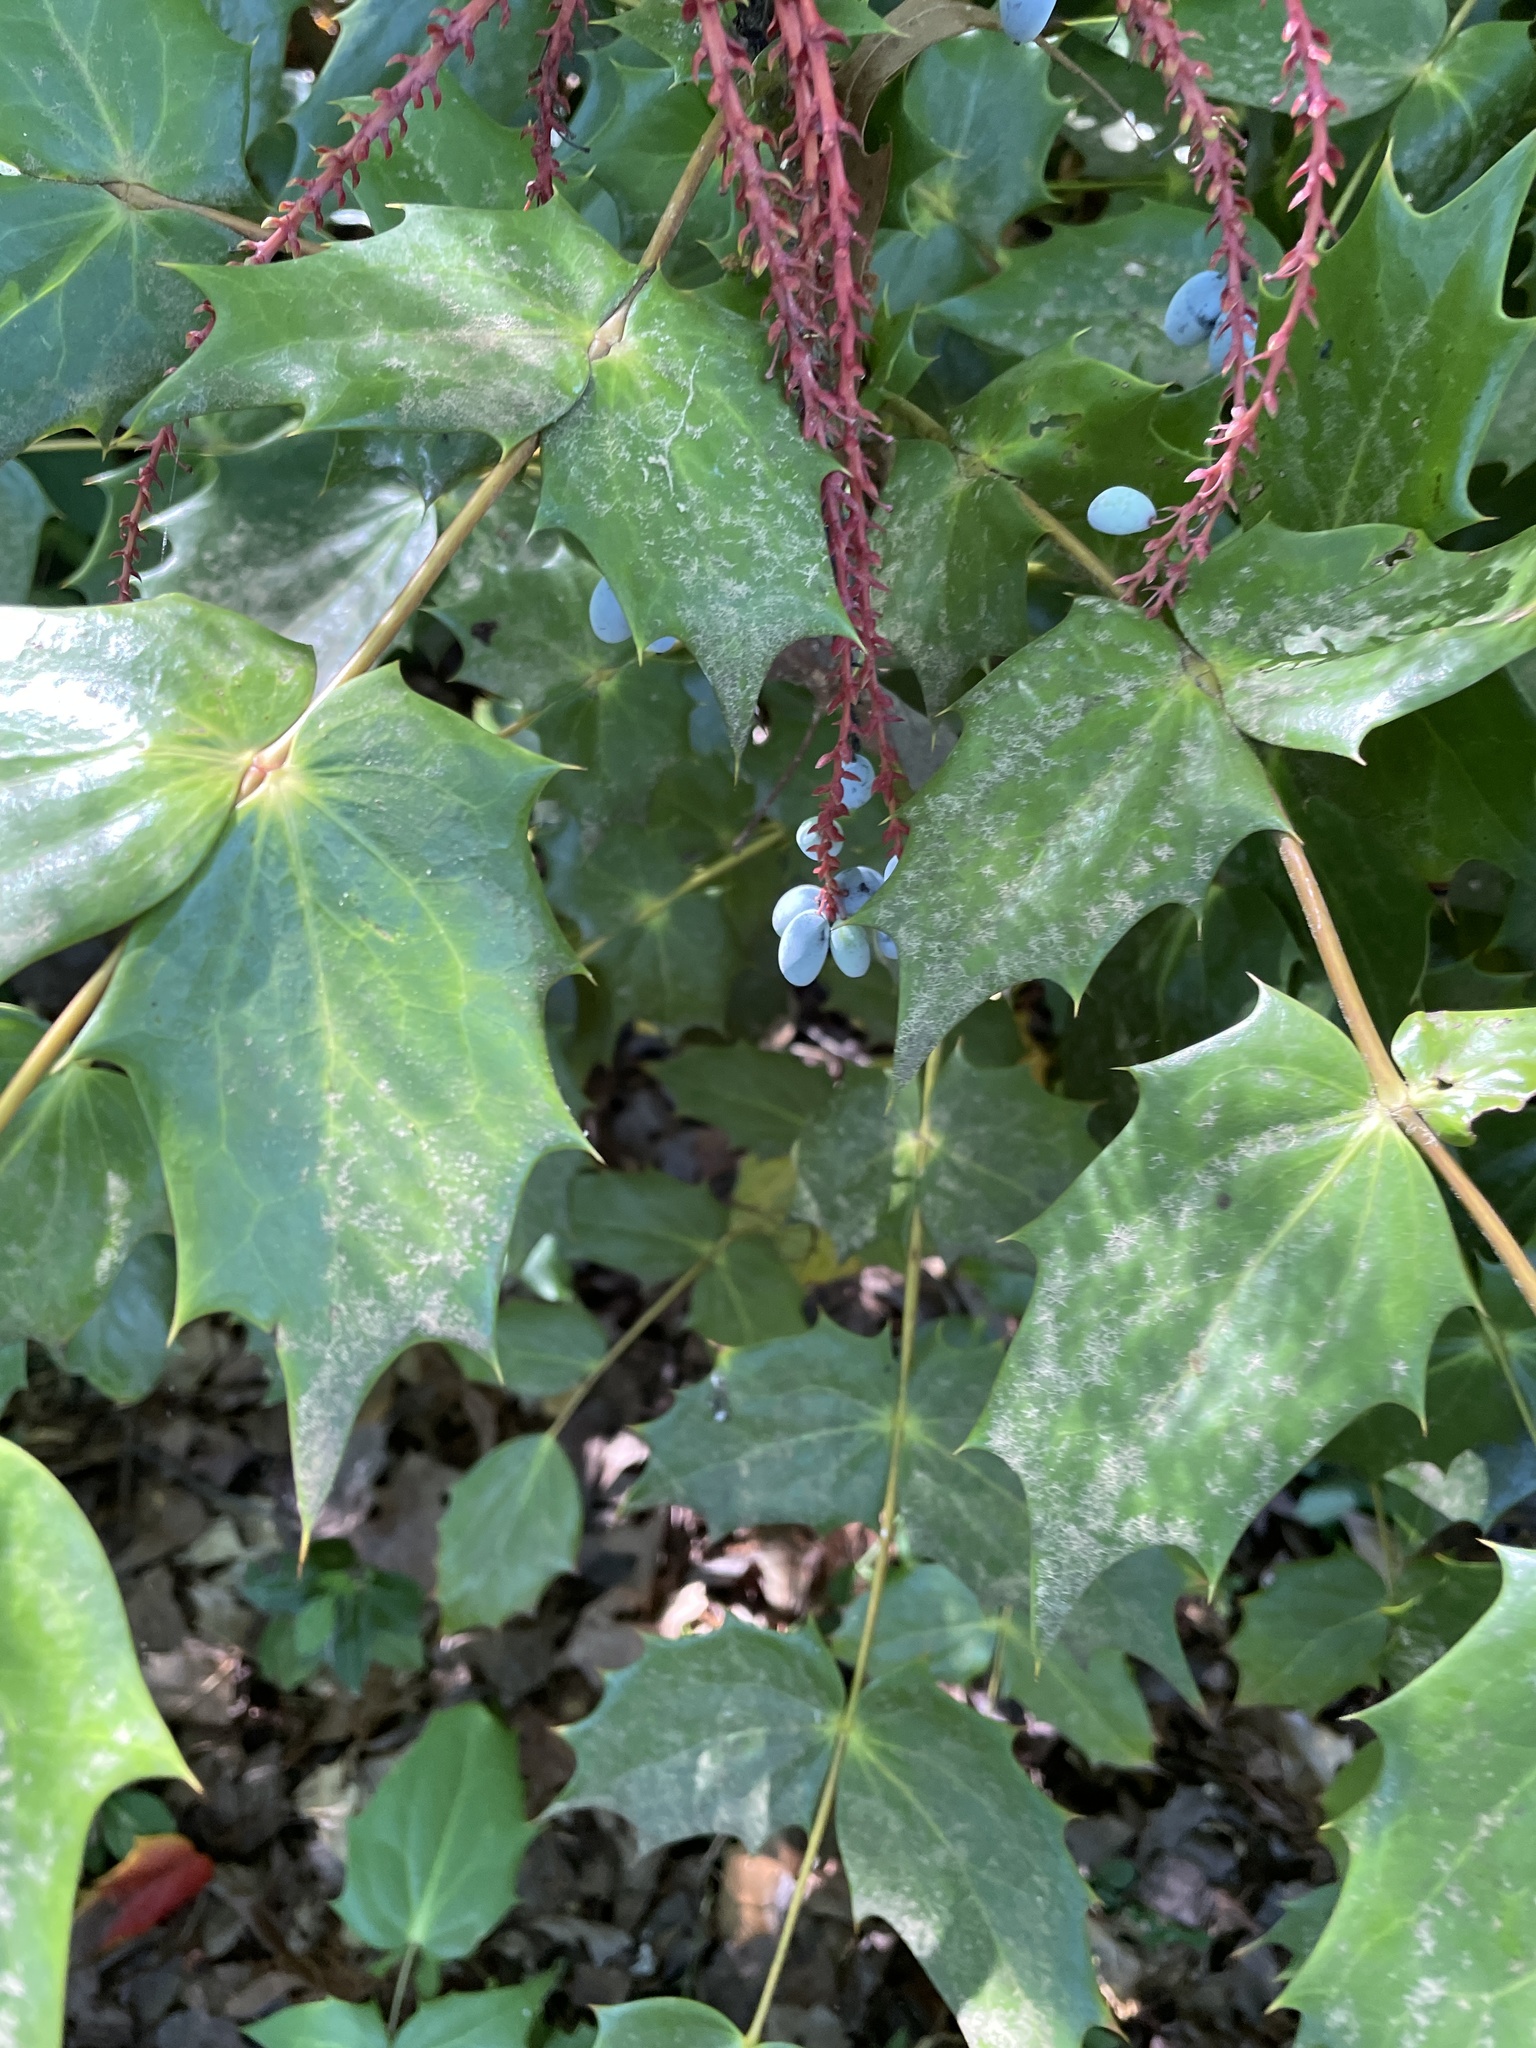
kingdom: Plantae
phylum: Tracheophyta
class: Magnoliopsida
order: Ranunculales
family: Berberidaceae
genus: Mahonia
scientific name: Mahonia bealei
